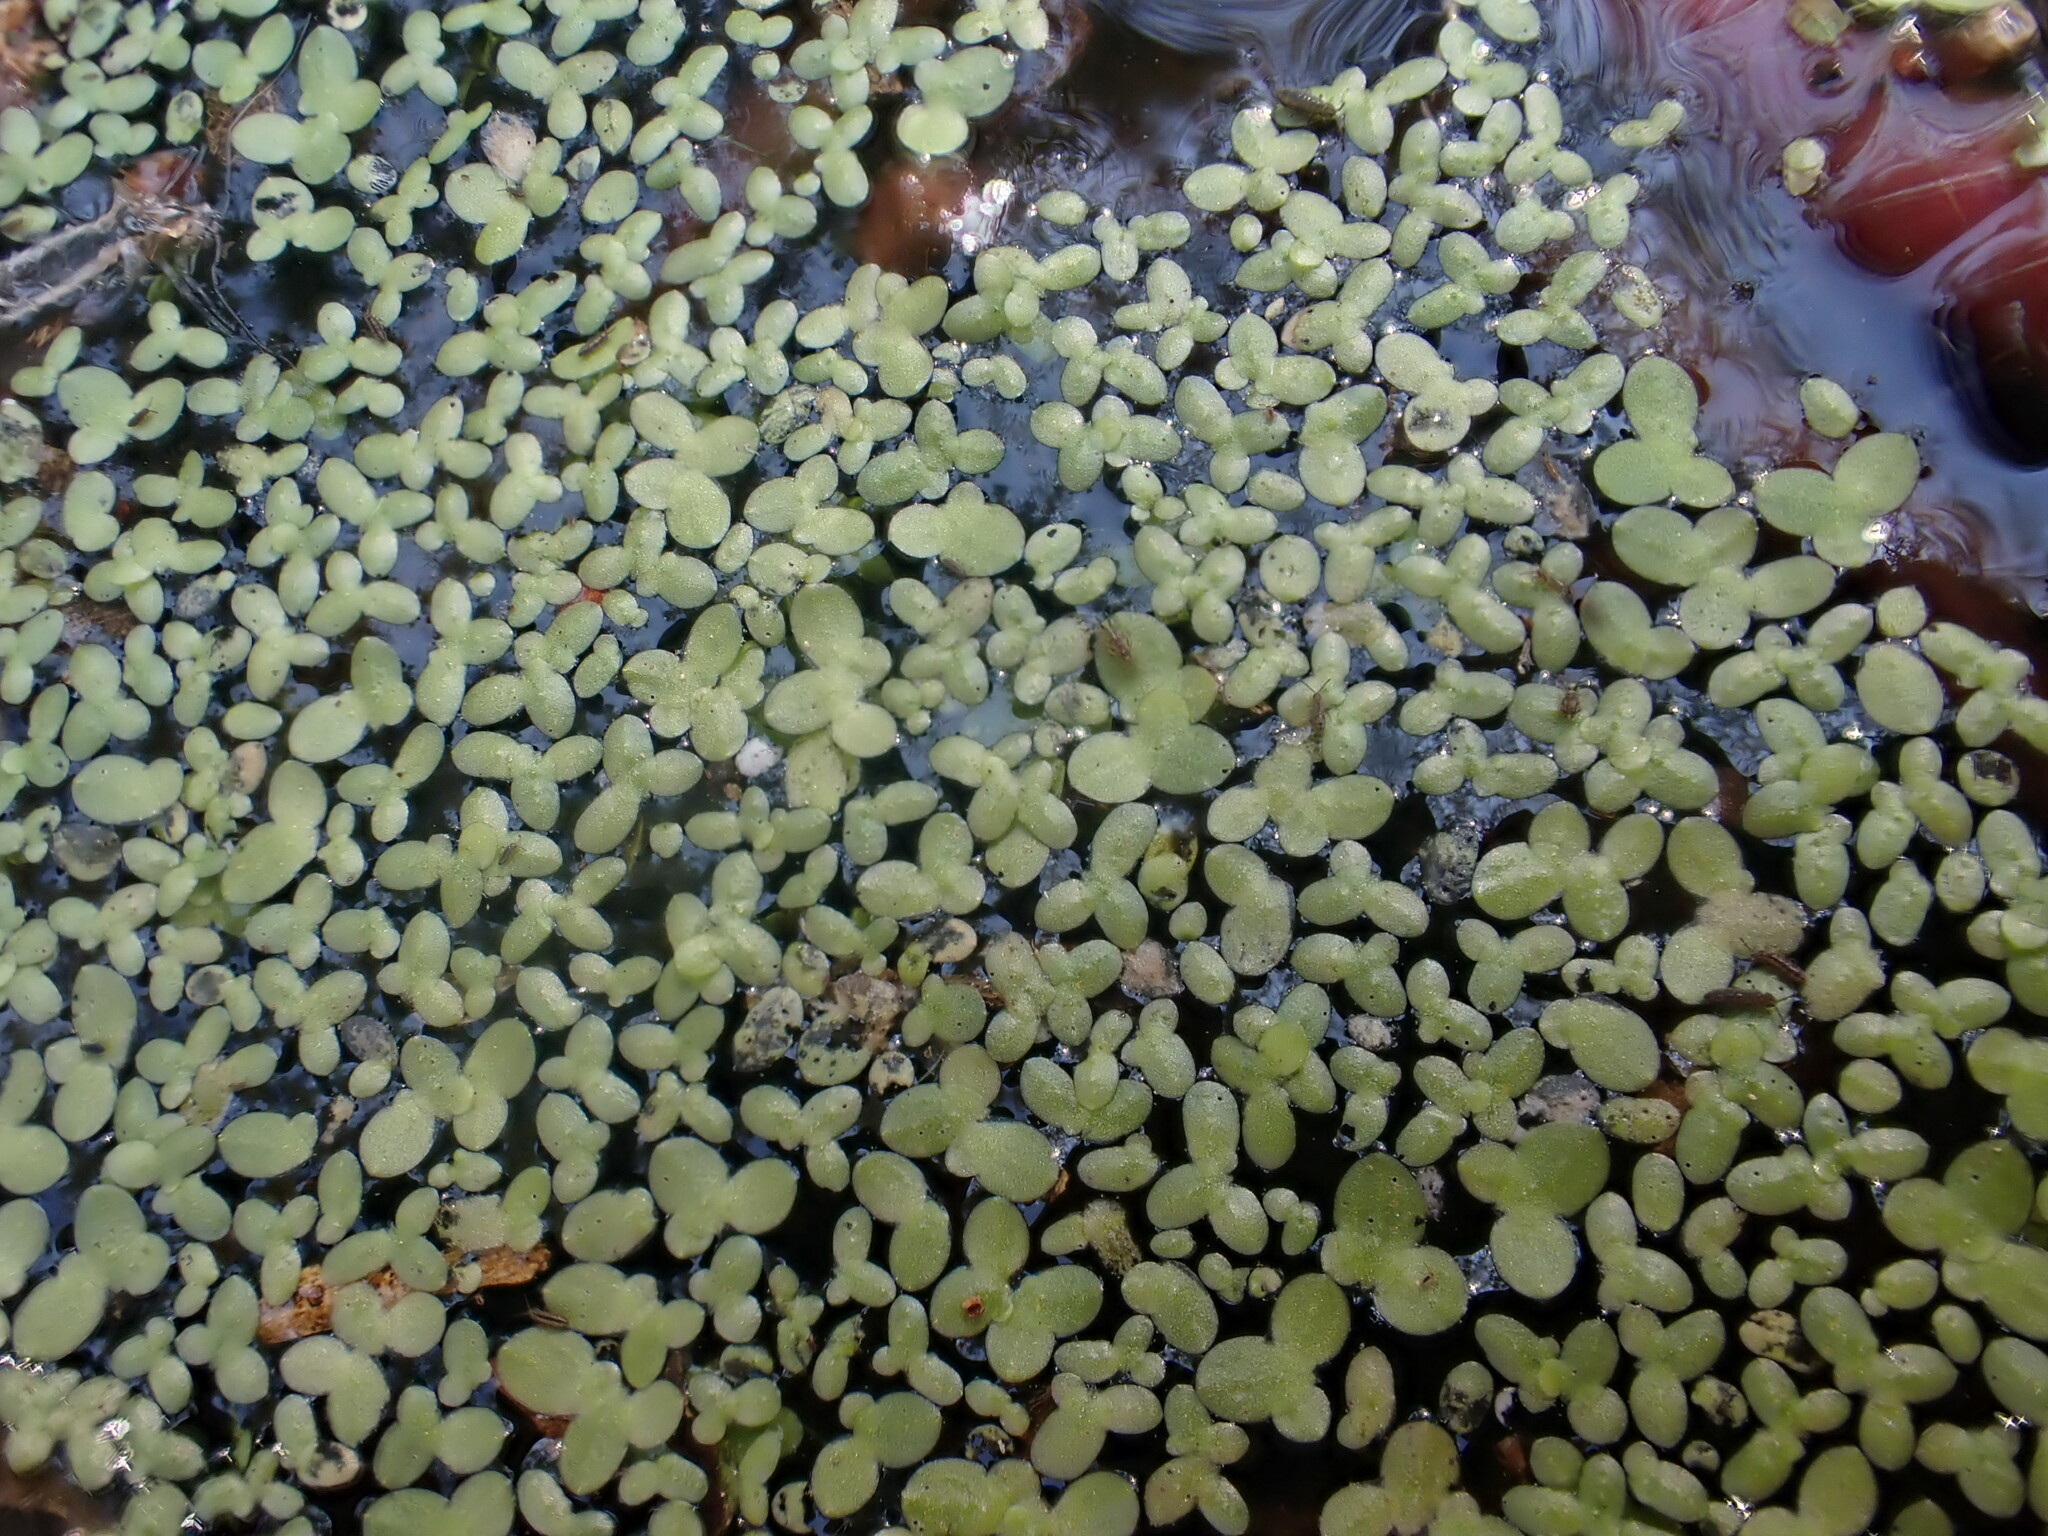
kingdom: Plantae
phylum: Tracheophyta
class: Liliopsida
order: Alismatales
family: Araceae
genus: Spirodela
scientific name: Spirodela polyrhiza
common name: Great duckweed
